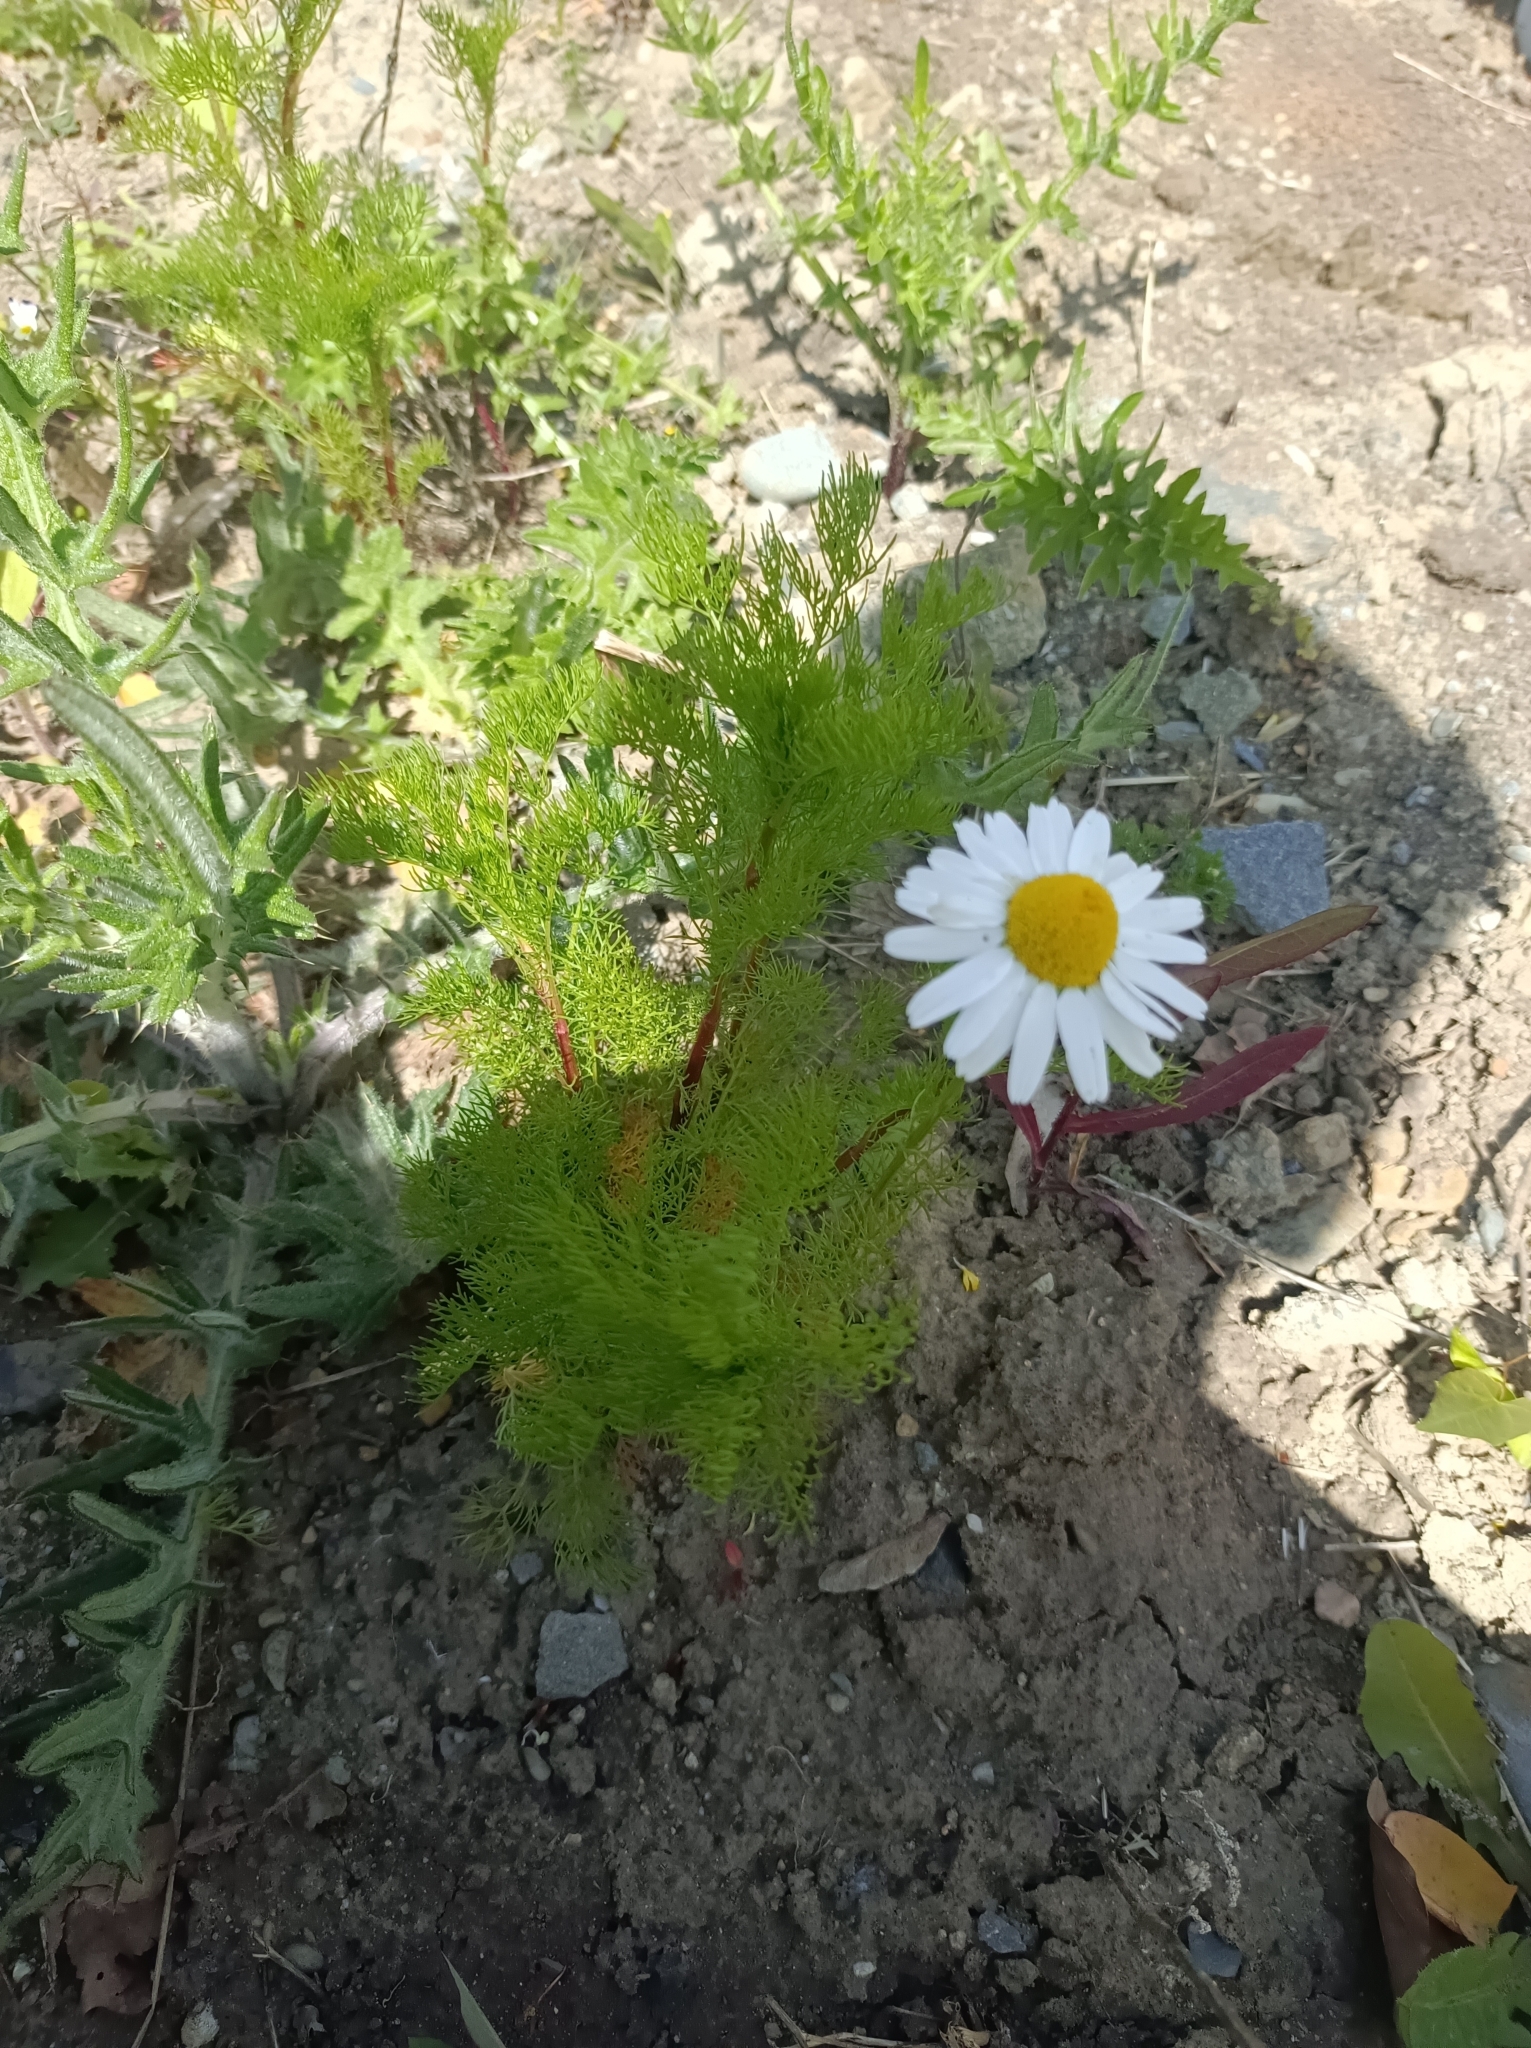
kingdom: Plantae
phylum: Tracheophyta
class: Magnoliopsida
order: Asterales
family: Asteraceae
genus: Tripleurospermum
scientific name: Tripleurospermum inodorum
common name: Scentless mayweed
